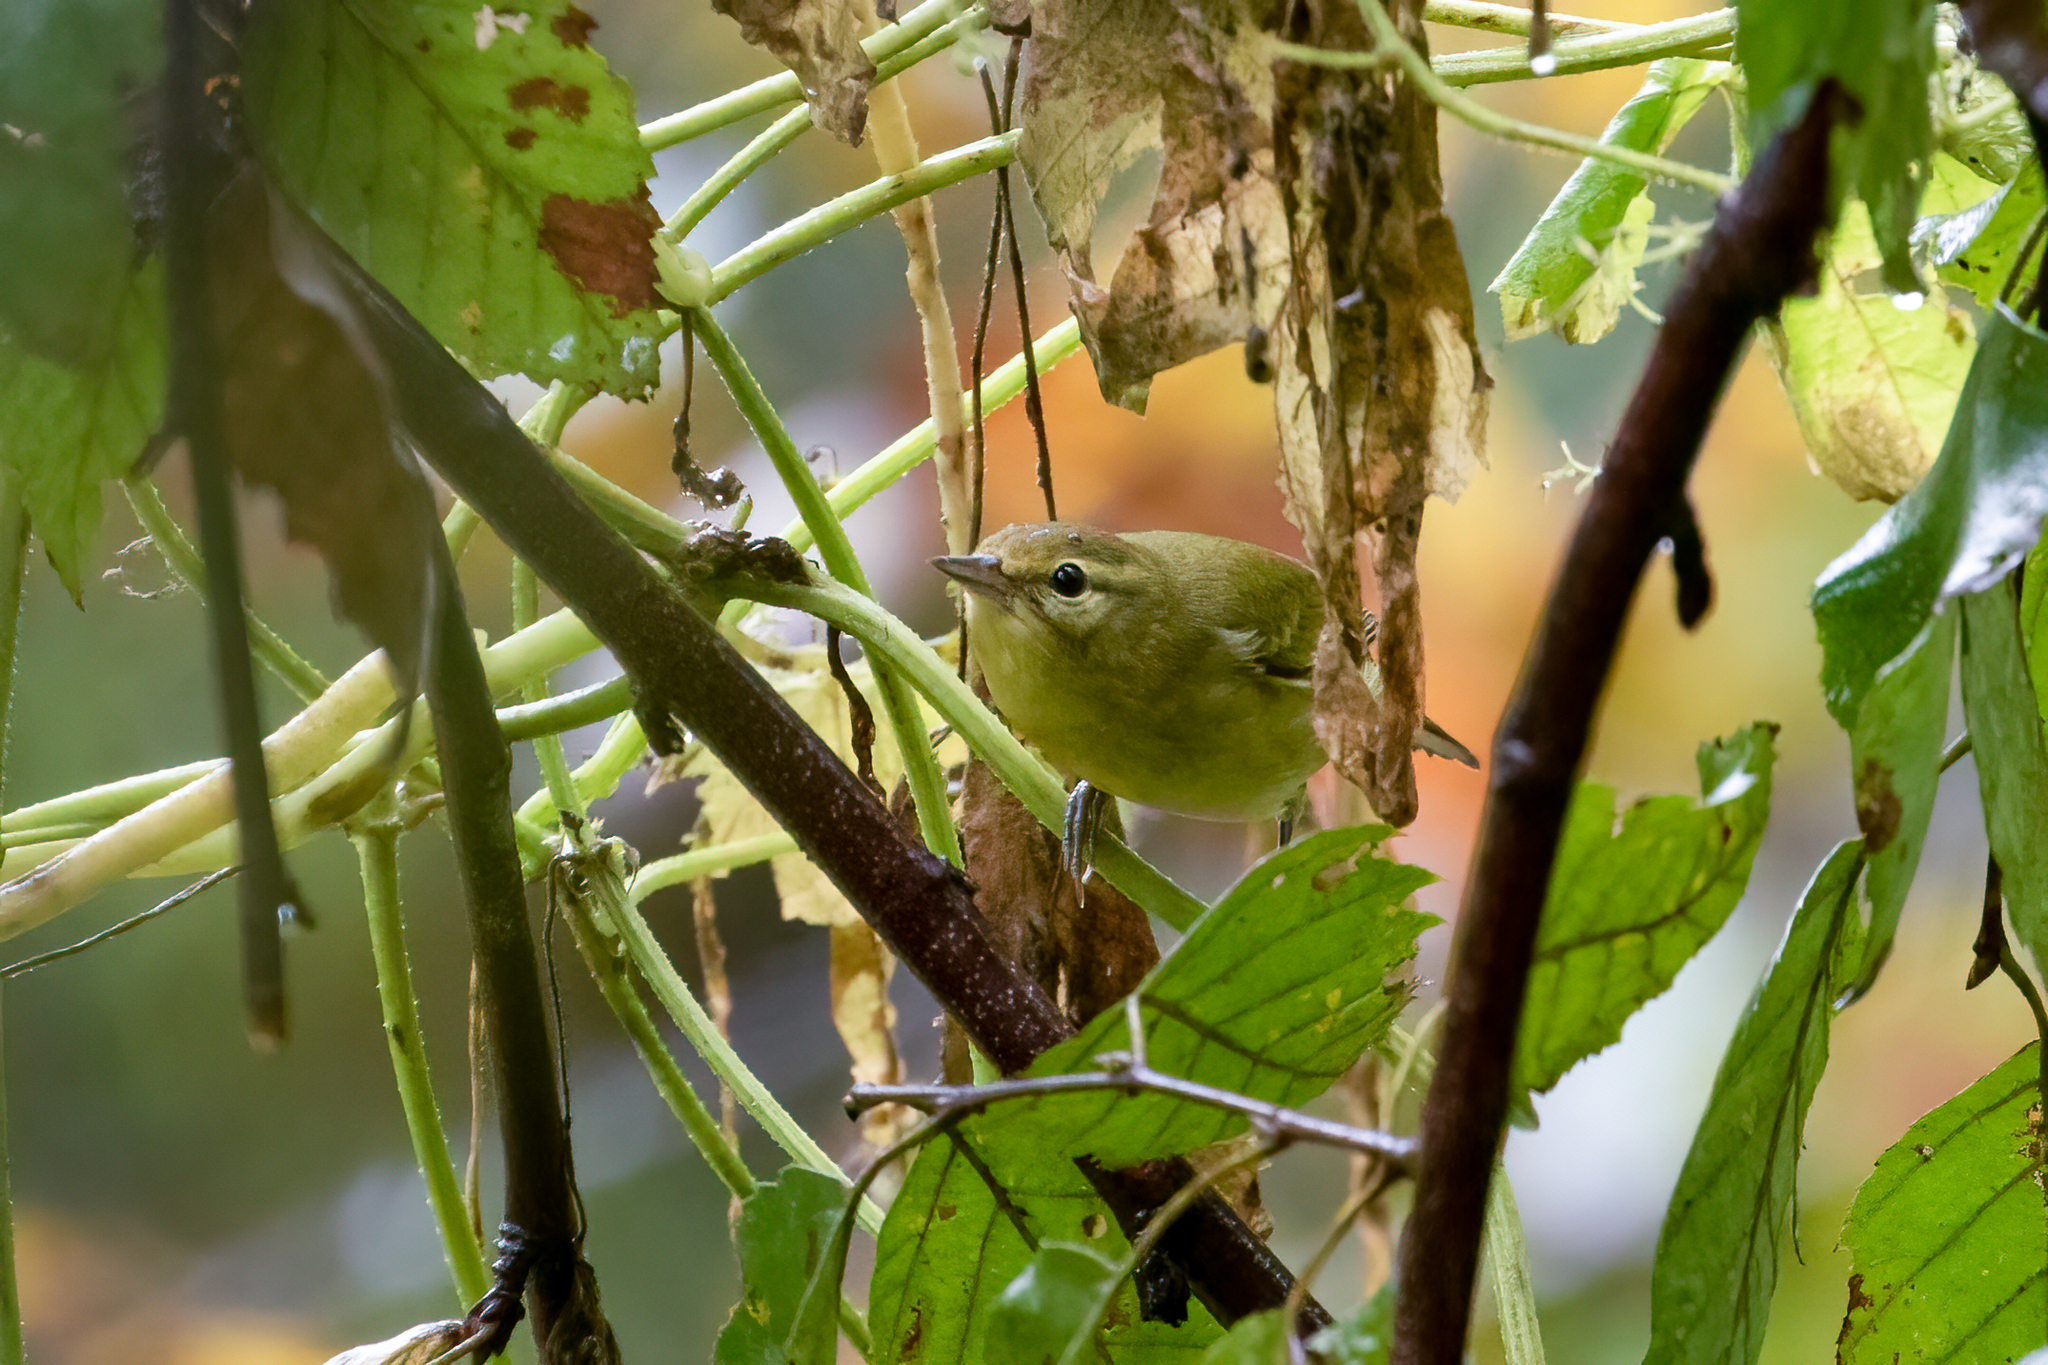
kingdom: Animalia
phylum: Chordata
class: Aves
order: Passeriformes
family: Parulidae
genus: Leiothlypis
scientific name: Leiothlypis peregrina
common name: Tennessee warbler
